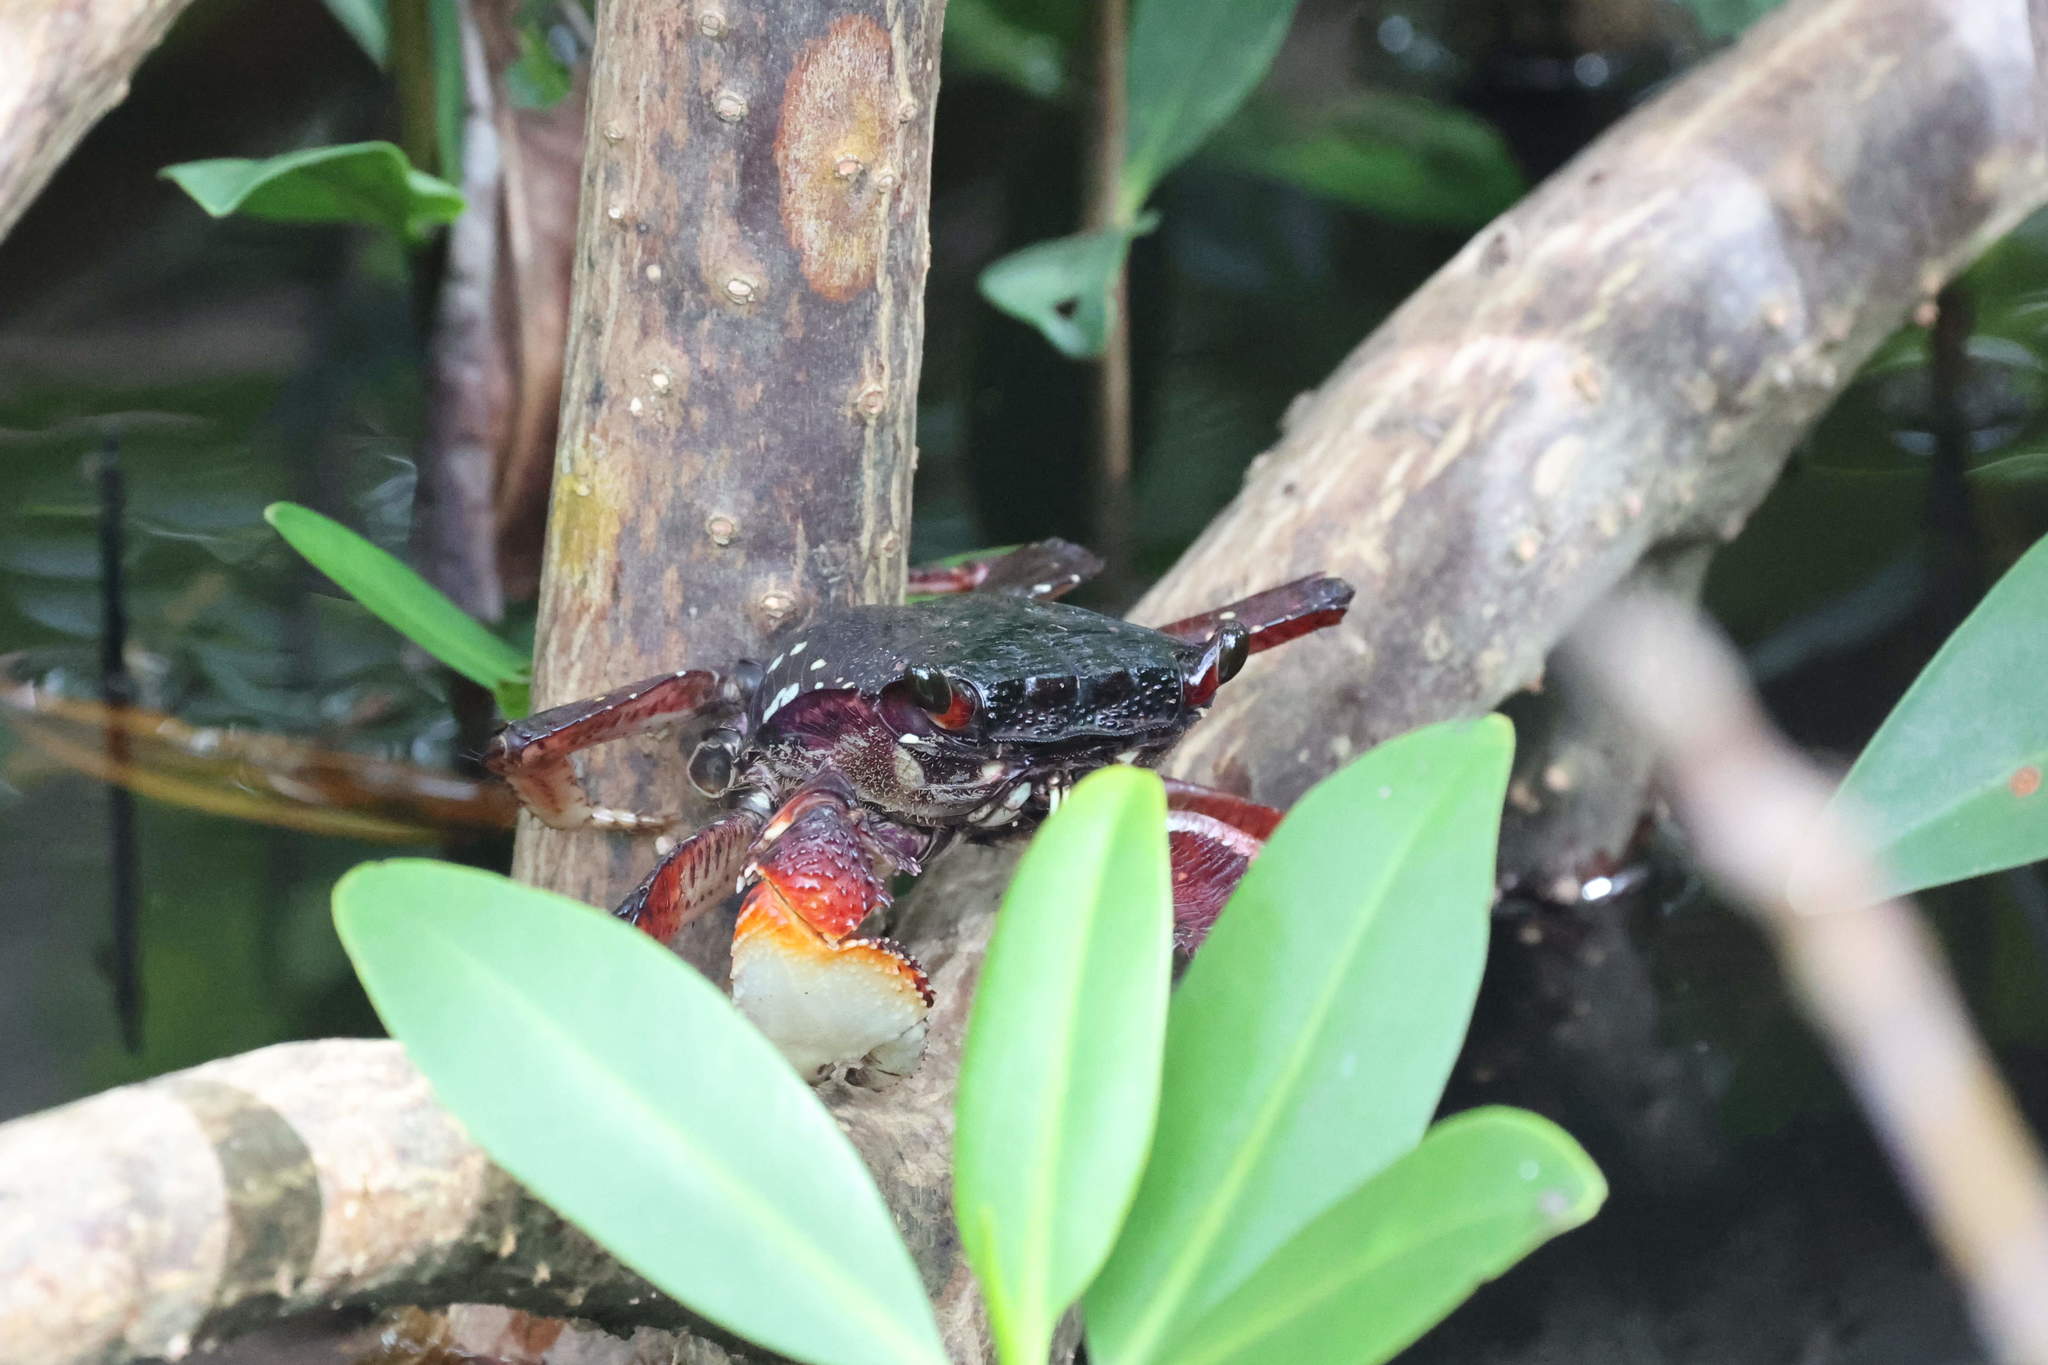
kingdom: Animalia
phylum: Arthropoda
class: Malacostraca
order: Decapoda
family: Grapsidae
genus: Goniopsis
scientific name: Goniopsis cruentata
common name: Mangrove crab
